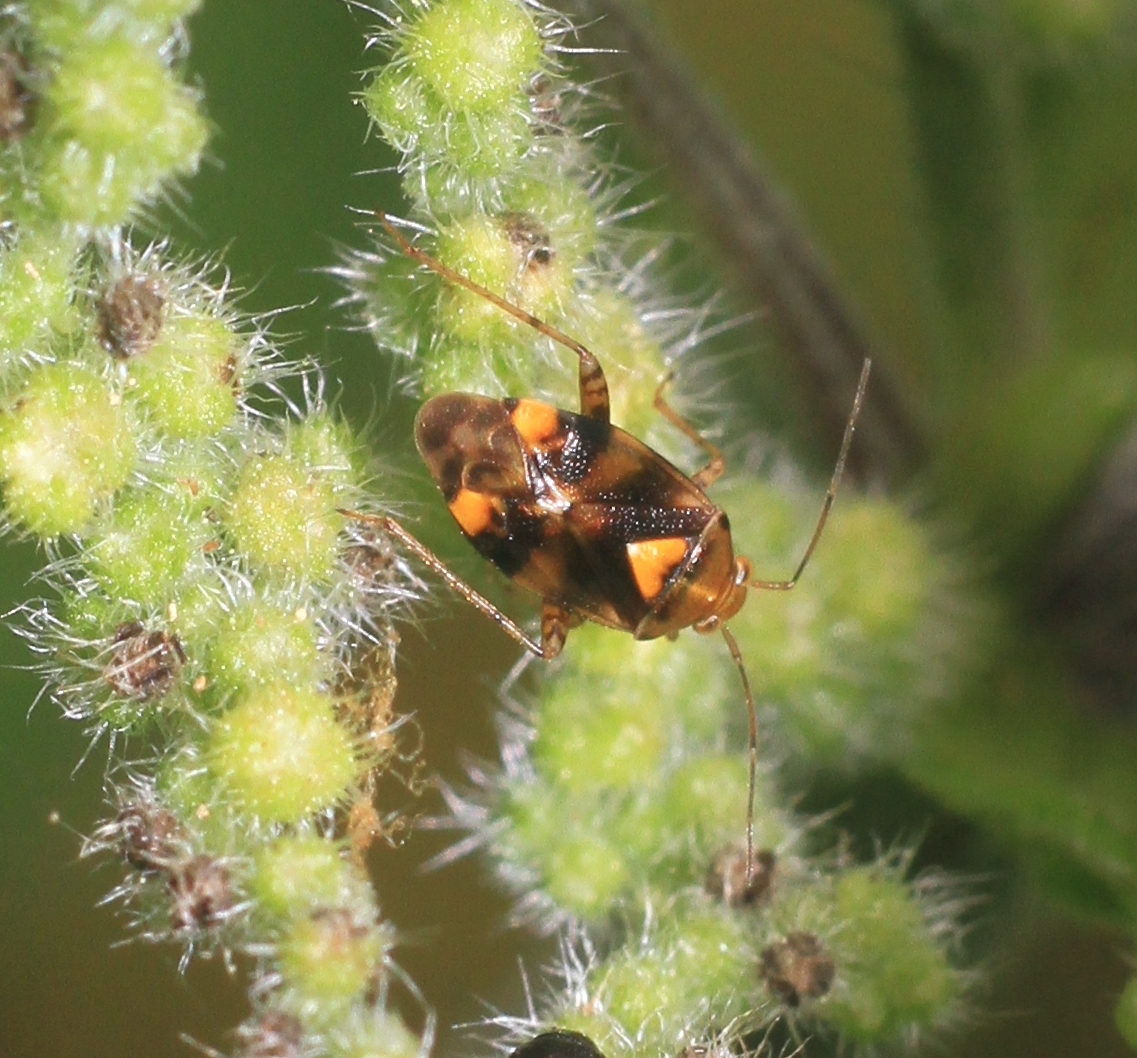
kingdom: Animalia
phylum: Arthropoda
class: Insecta
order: Hemiptera
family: Miridae
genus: Liocoris
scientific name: Liocoris tripustulatus
